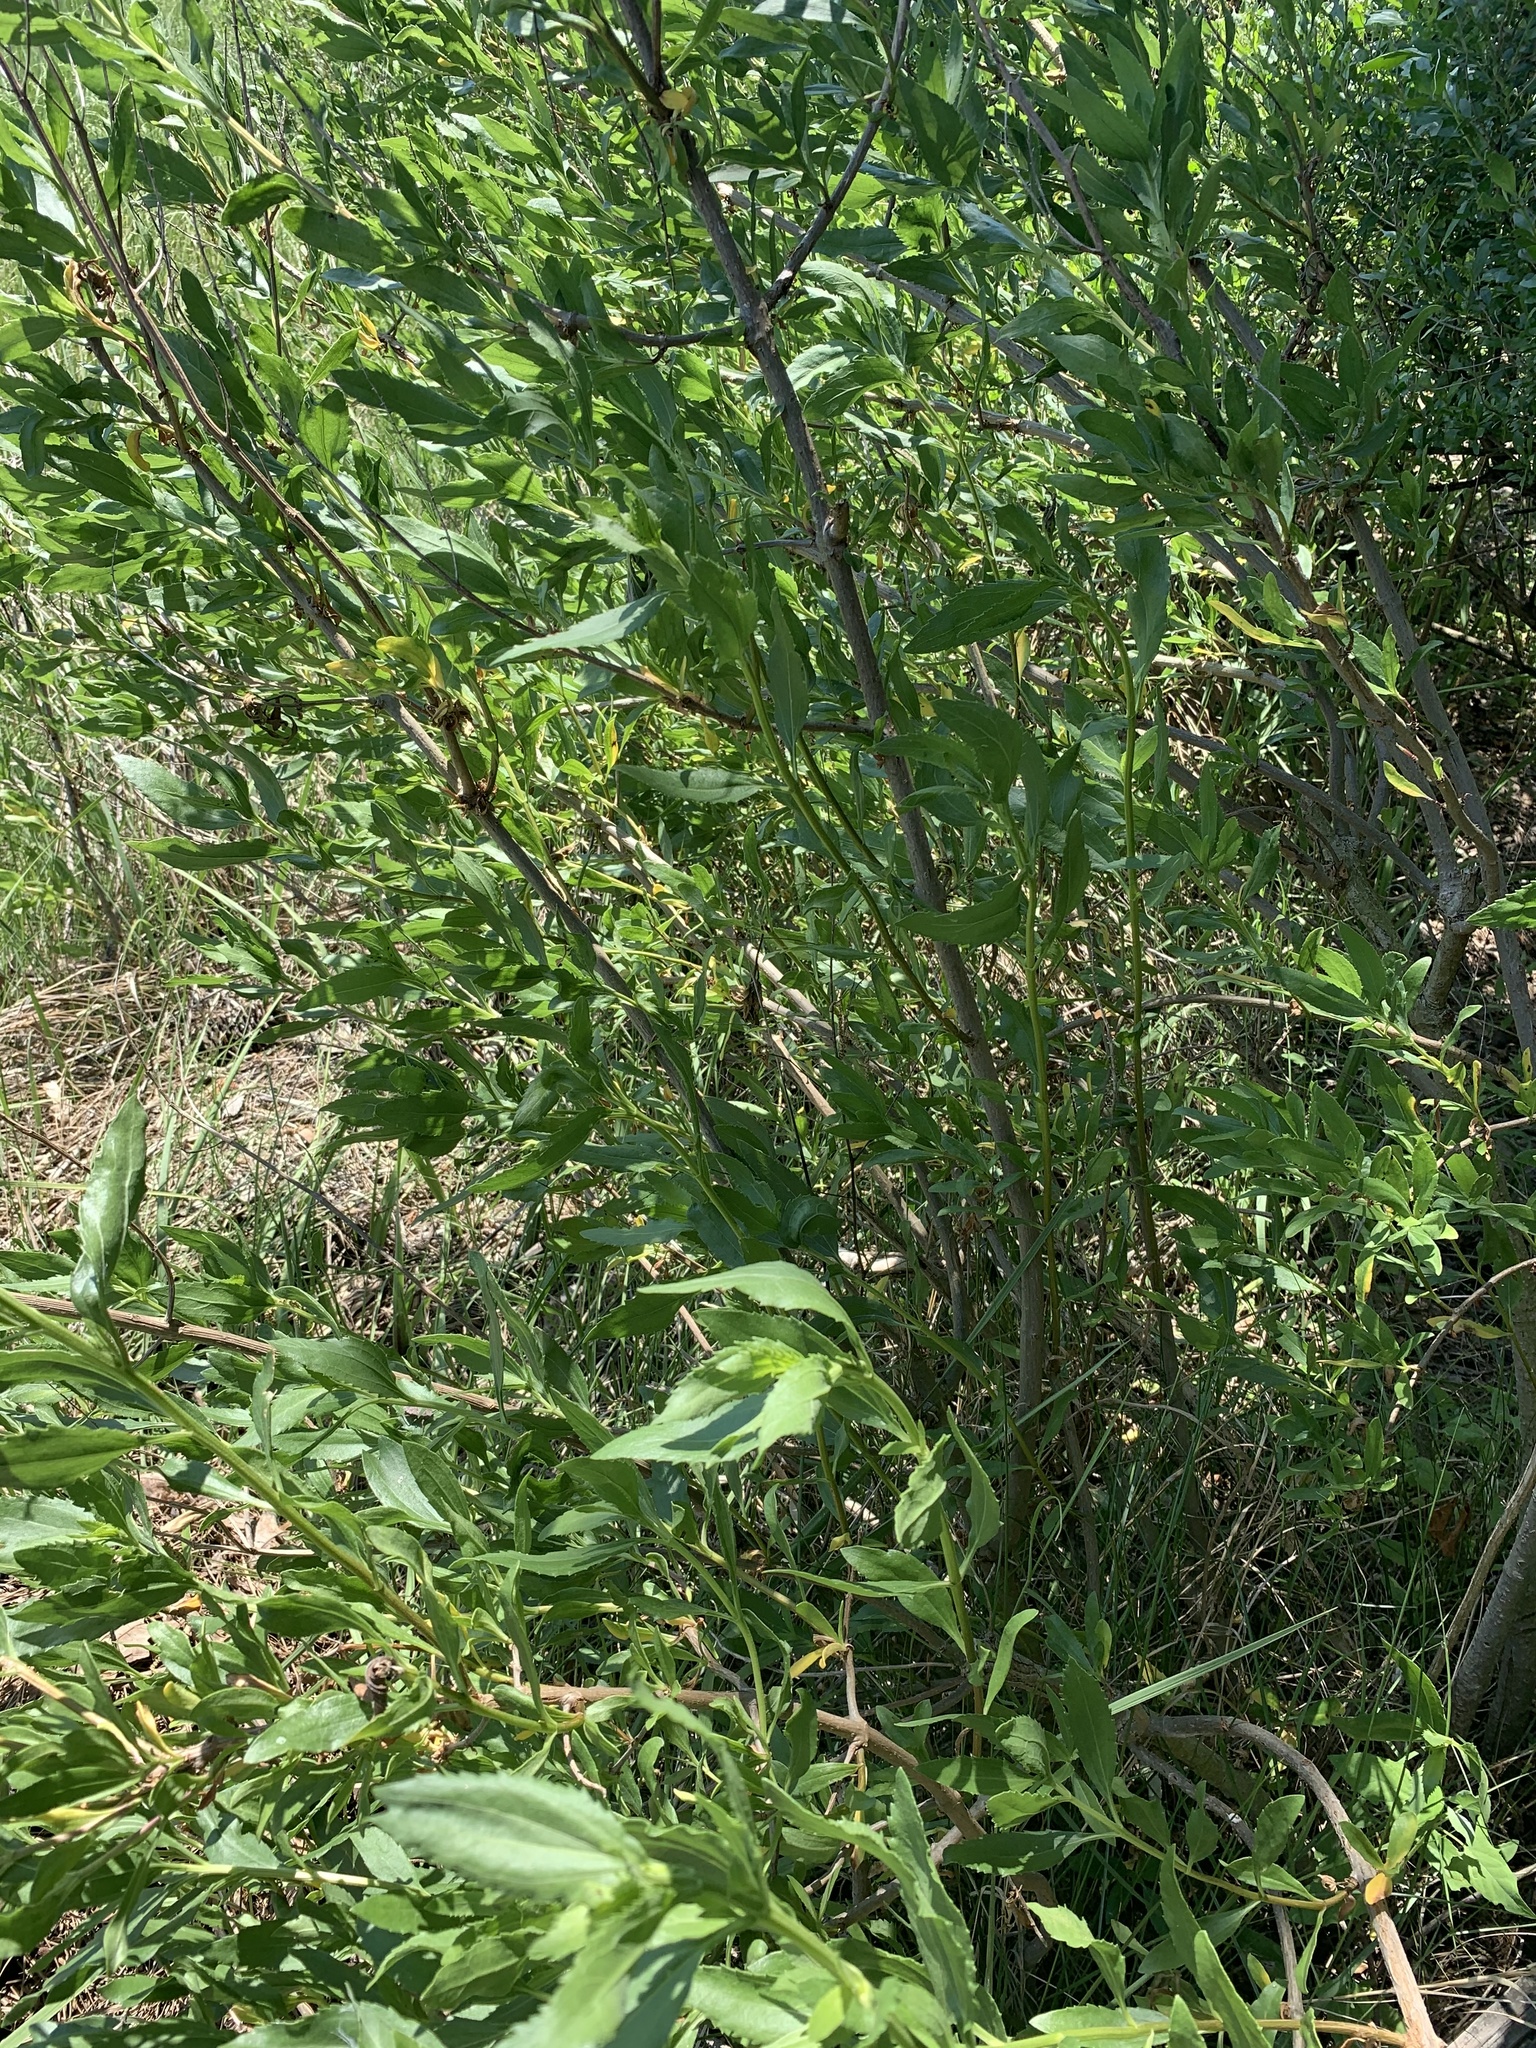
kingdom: Plantae
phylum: Tracheophyta
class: Magnoliopsida
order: Asterales
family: Asteraceae
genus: Iva
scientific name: Iva frutescens
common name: Big-leaved marsh-elder
